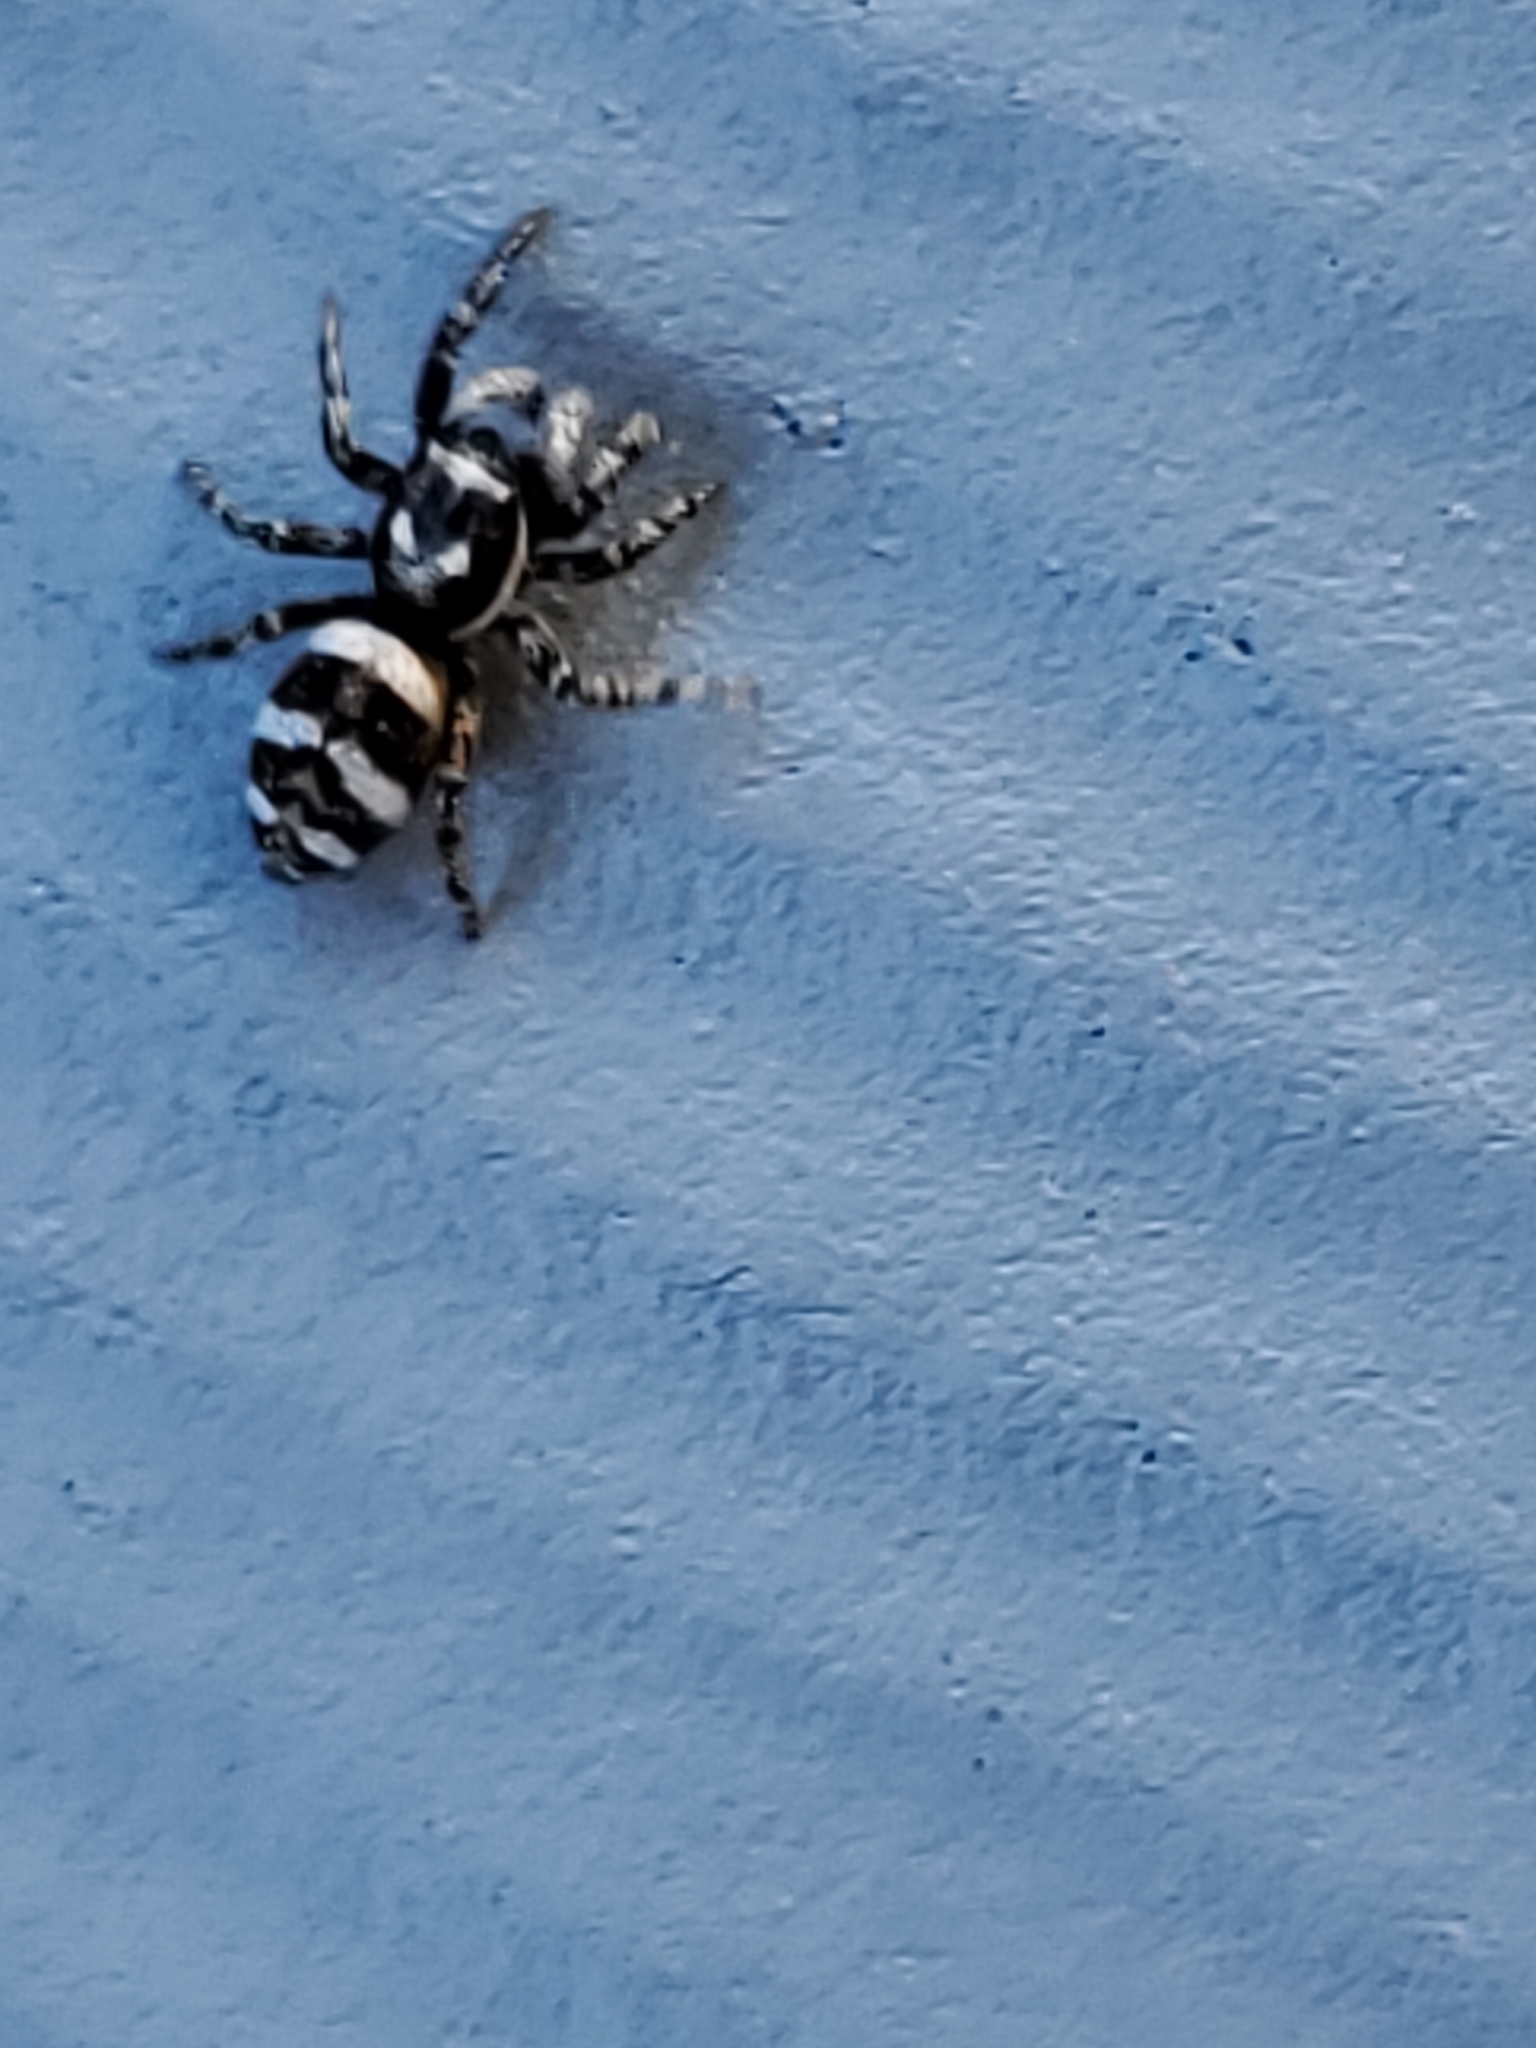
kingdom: Animalia
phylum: Arthropoda
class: Arachnida
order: Araneae
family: Salticidae
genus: Salticus
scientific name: Salticus scenicus
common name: Zebra jumper
